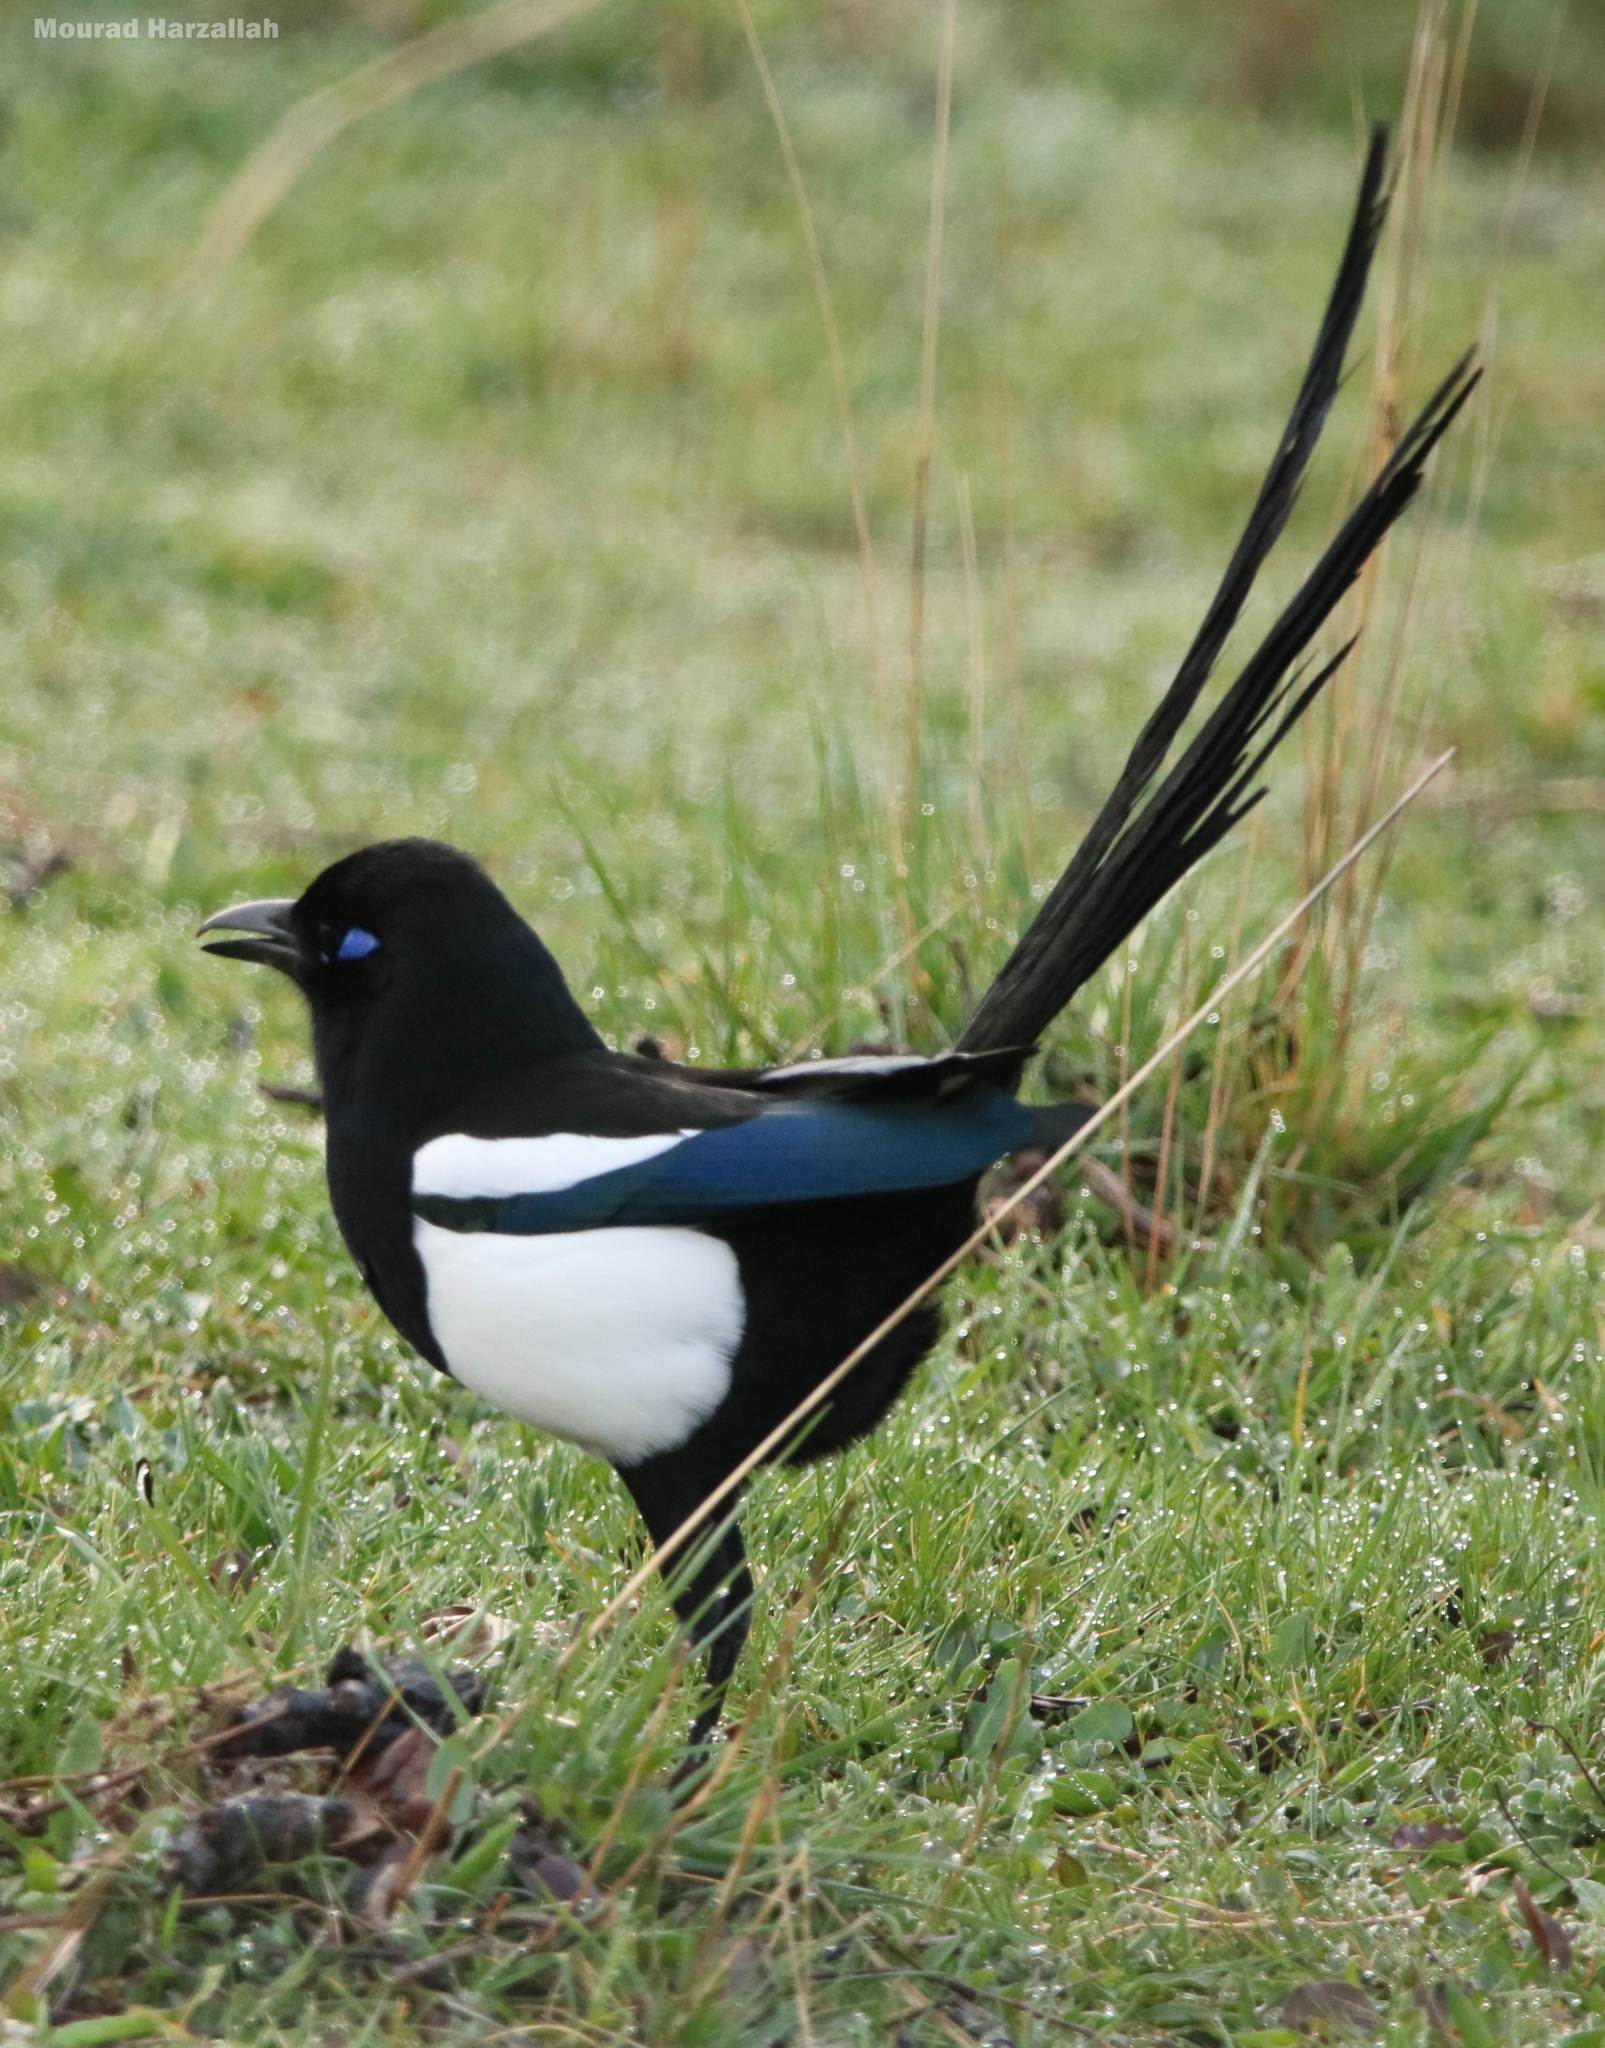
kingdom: Animalia
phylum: Chordata
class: Aves
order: Passeriformes
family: Corvidae
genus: Pica
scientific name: Pica mauritanica
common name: Maghreb magpie
